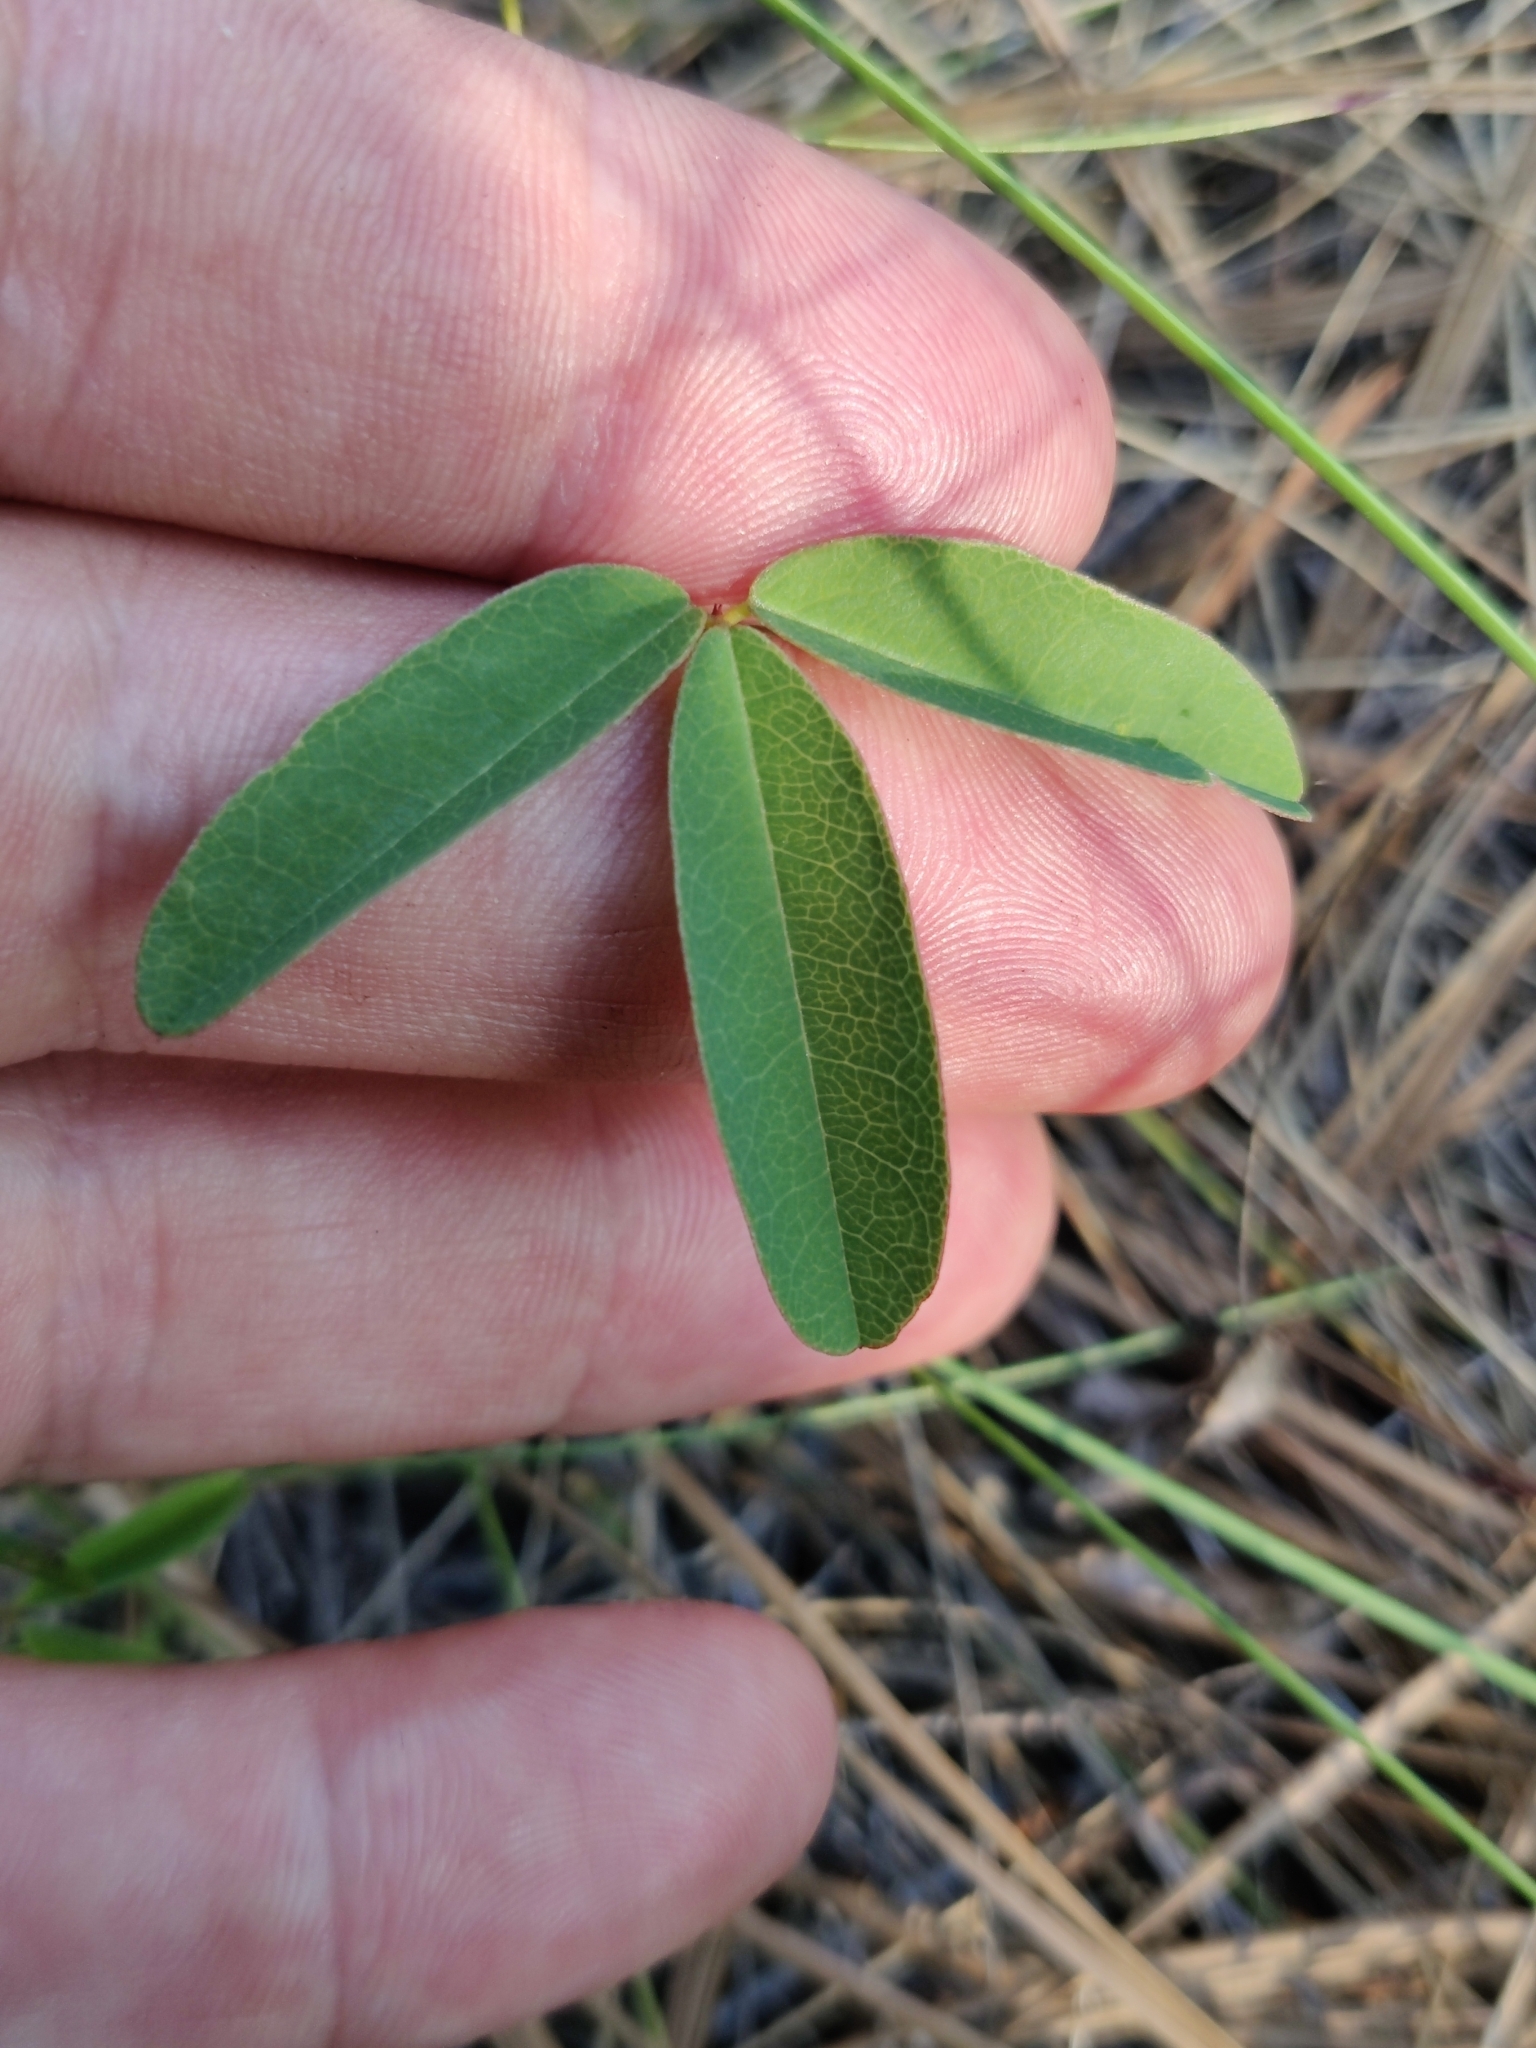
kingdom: Plantae
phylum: Tracheophyta
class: Magnoliopsida
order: Fabales
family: Fabaceae
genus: Galactia
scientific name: Galactia erecta
